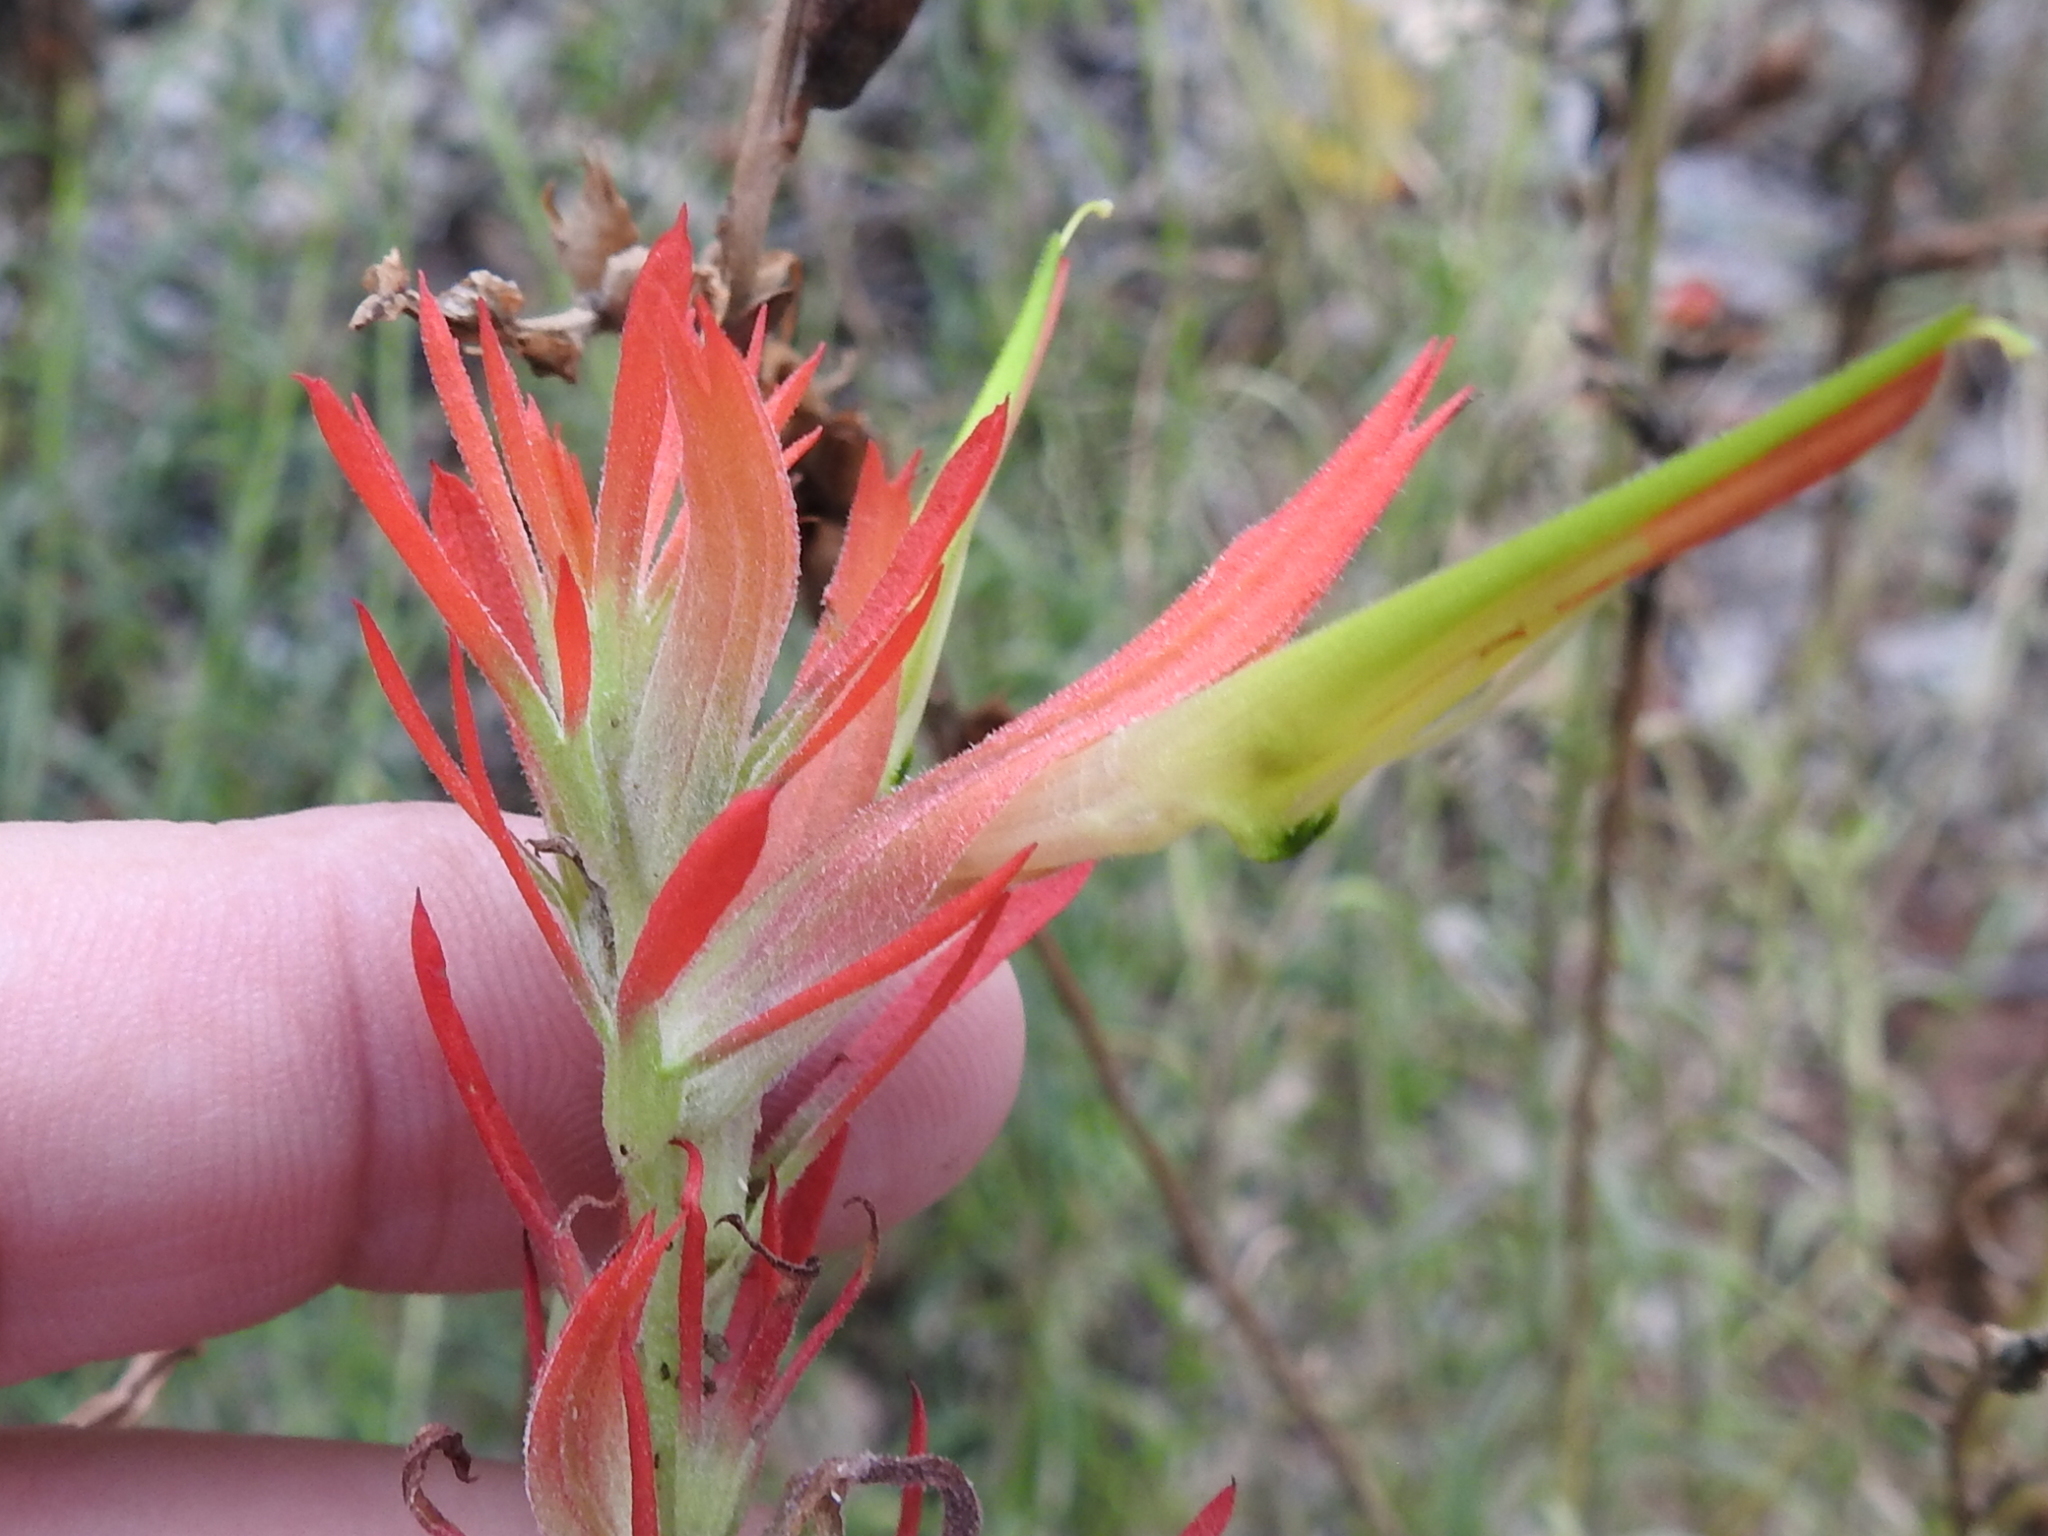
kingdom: Plantae
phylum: Tracheophyta
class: Magnoliopsida
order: Lamiales
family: Orobanchaceae
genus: Castilleja
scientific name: Castilleja linariifolia
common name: Wyoming paintbrush
